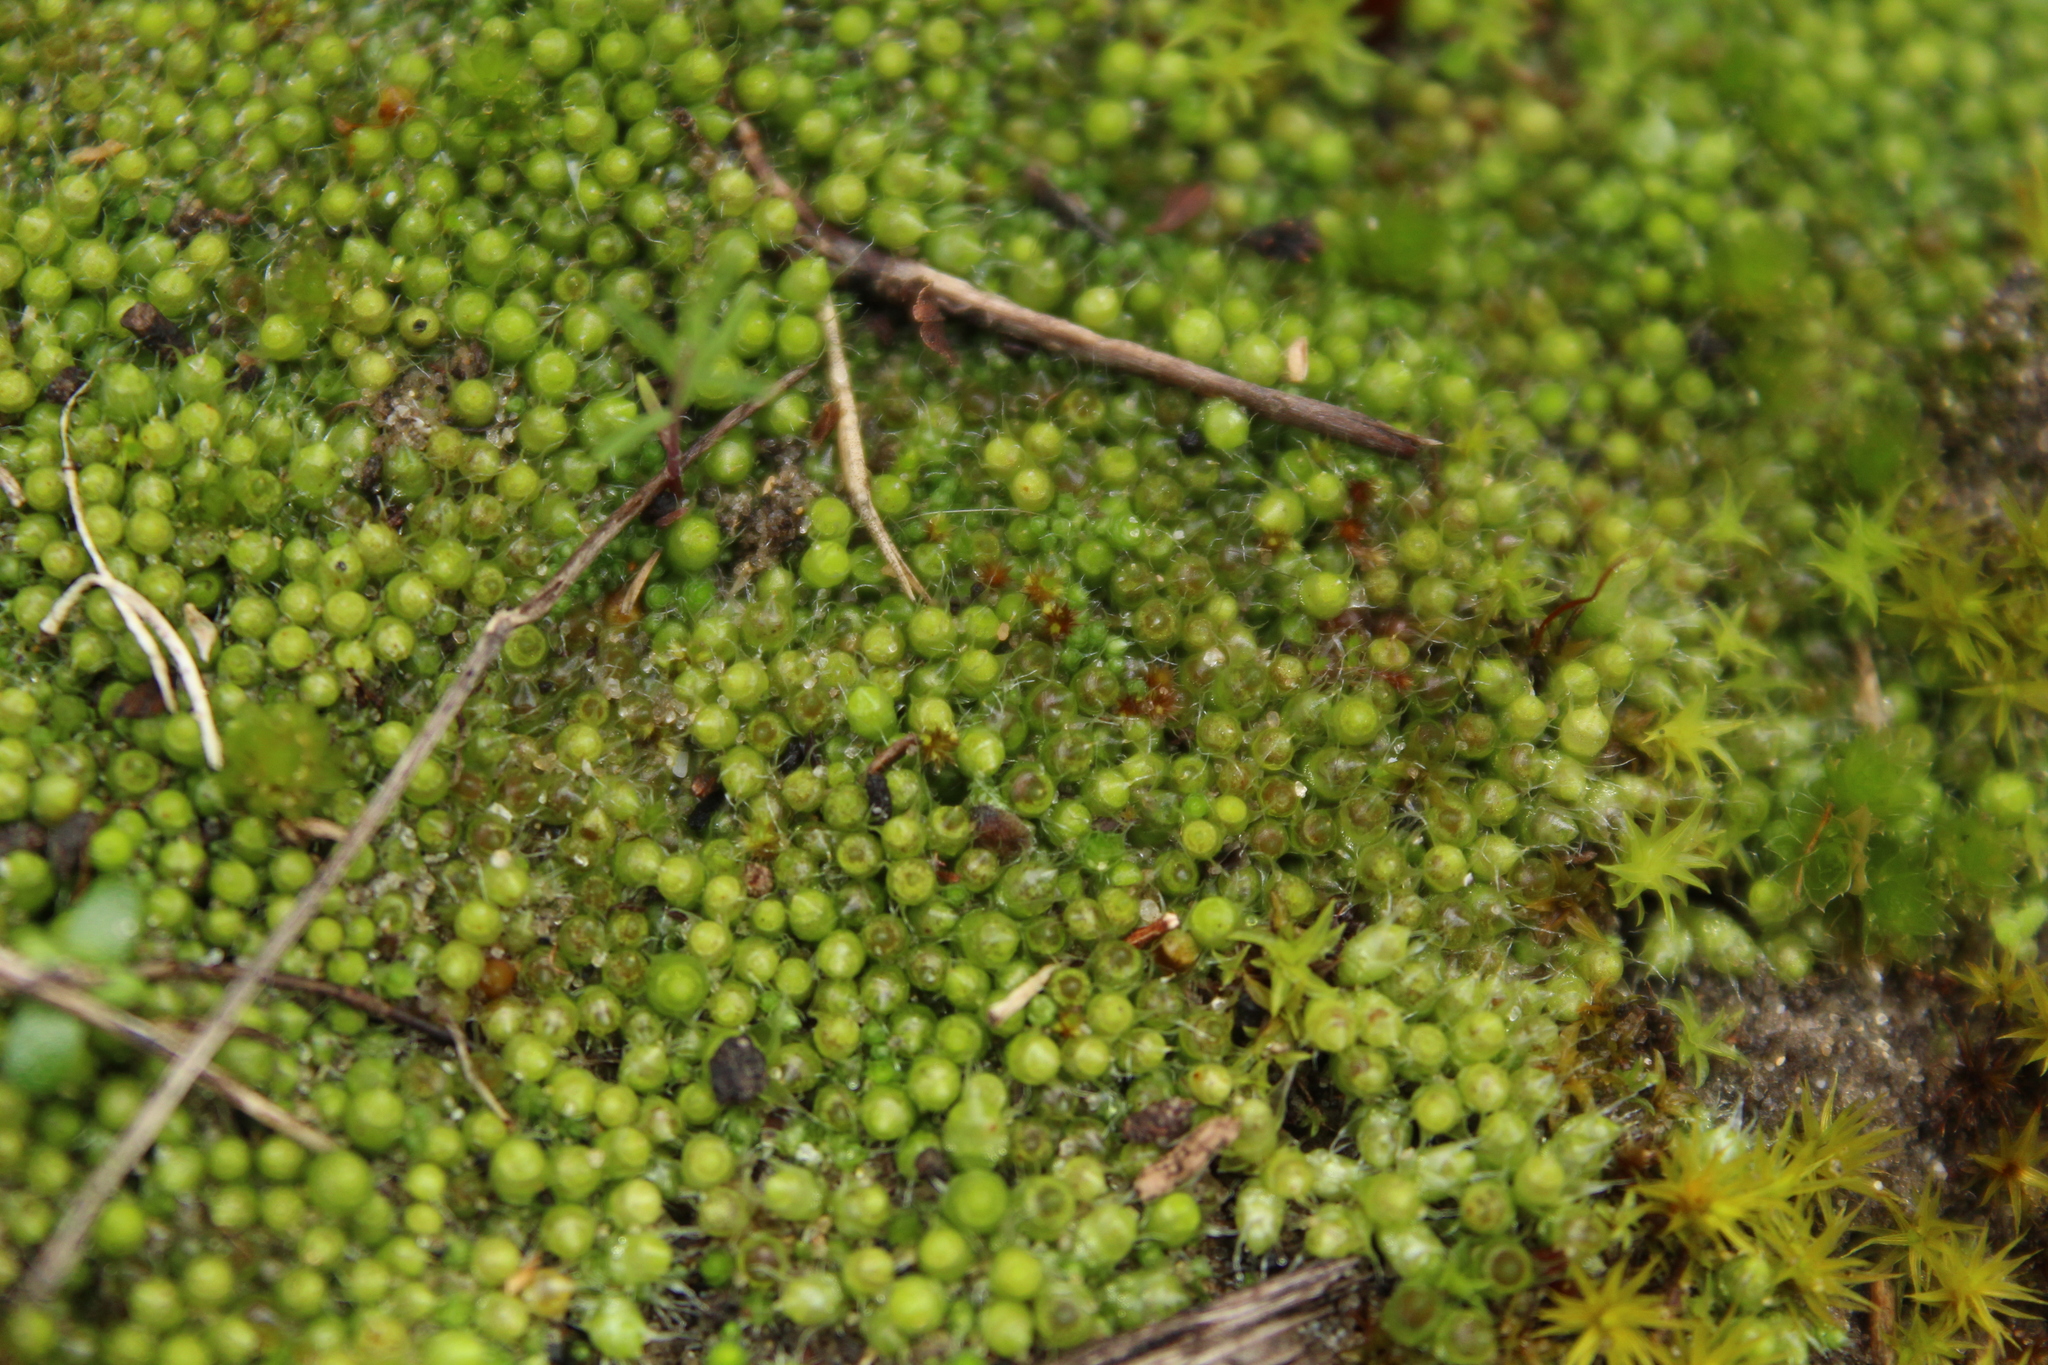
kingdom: Plantae
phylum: Bryophyta
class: Bryopsida
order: Gigaspermales
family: Gigaspermaceae
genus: Gigaspermum
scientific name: Gigaspermum repens
